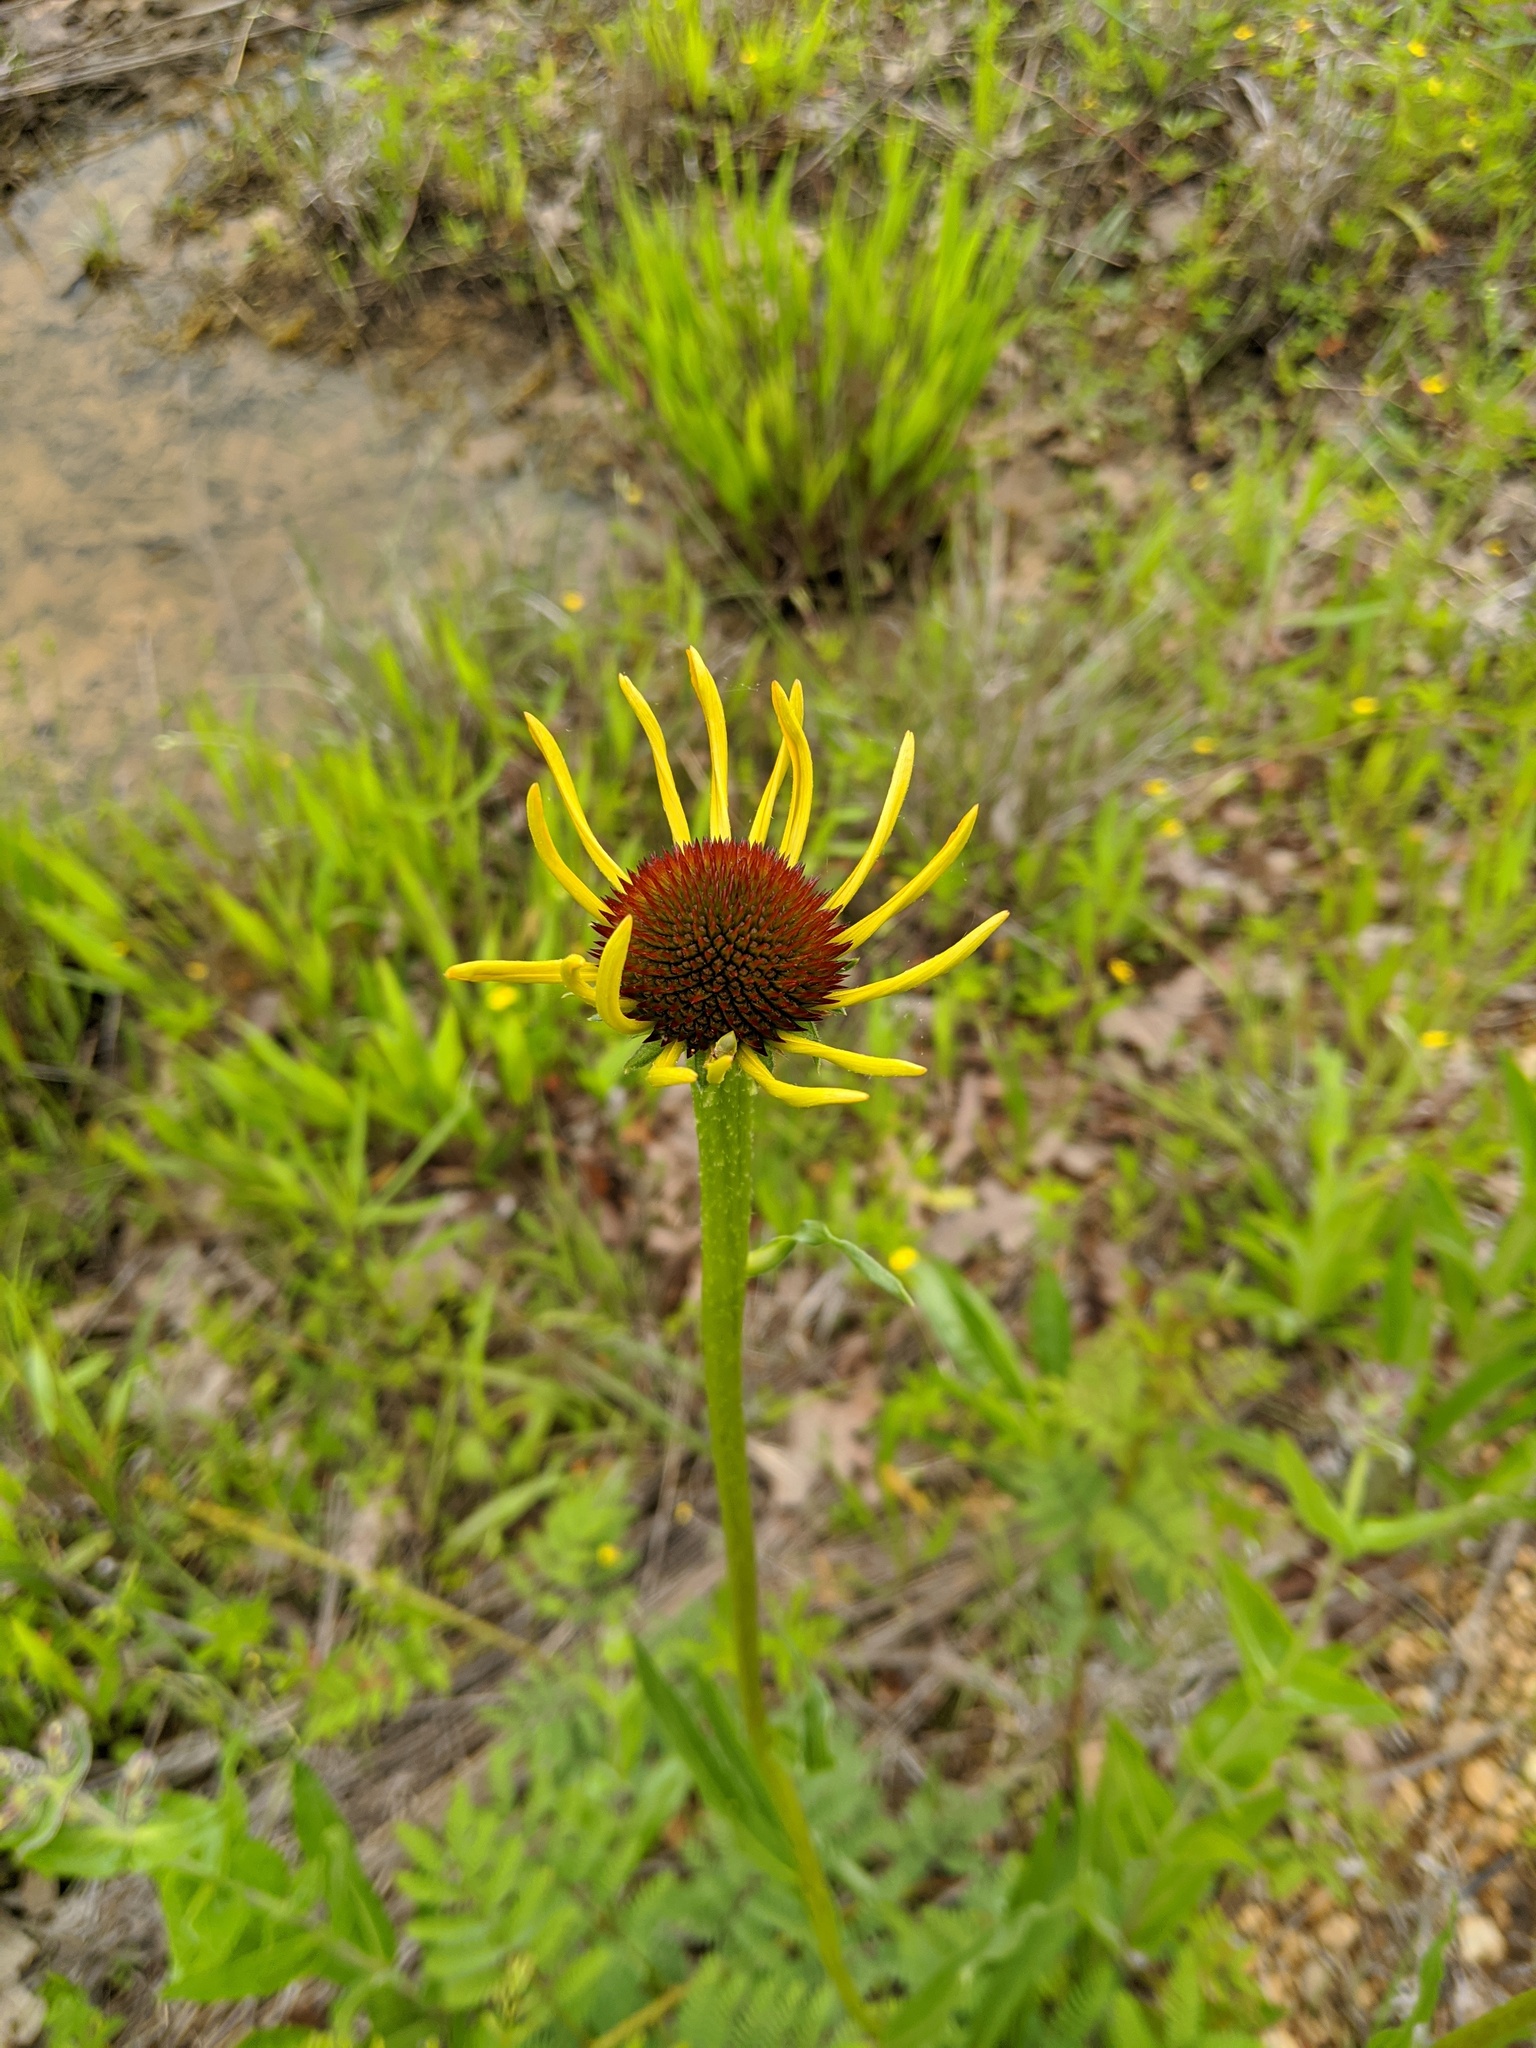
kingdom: Plantae
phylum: Tracheophyta
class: Magnoliopsida
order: Asterales
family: Asteraceae
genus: Echinacea
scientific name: Echinacea paradoxa
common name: Bush's purple-coneflower
